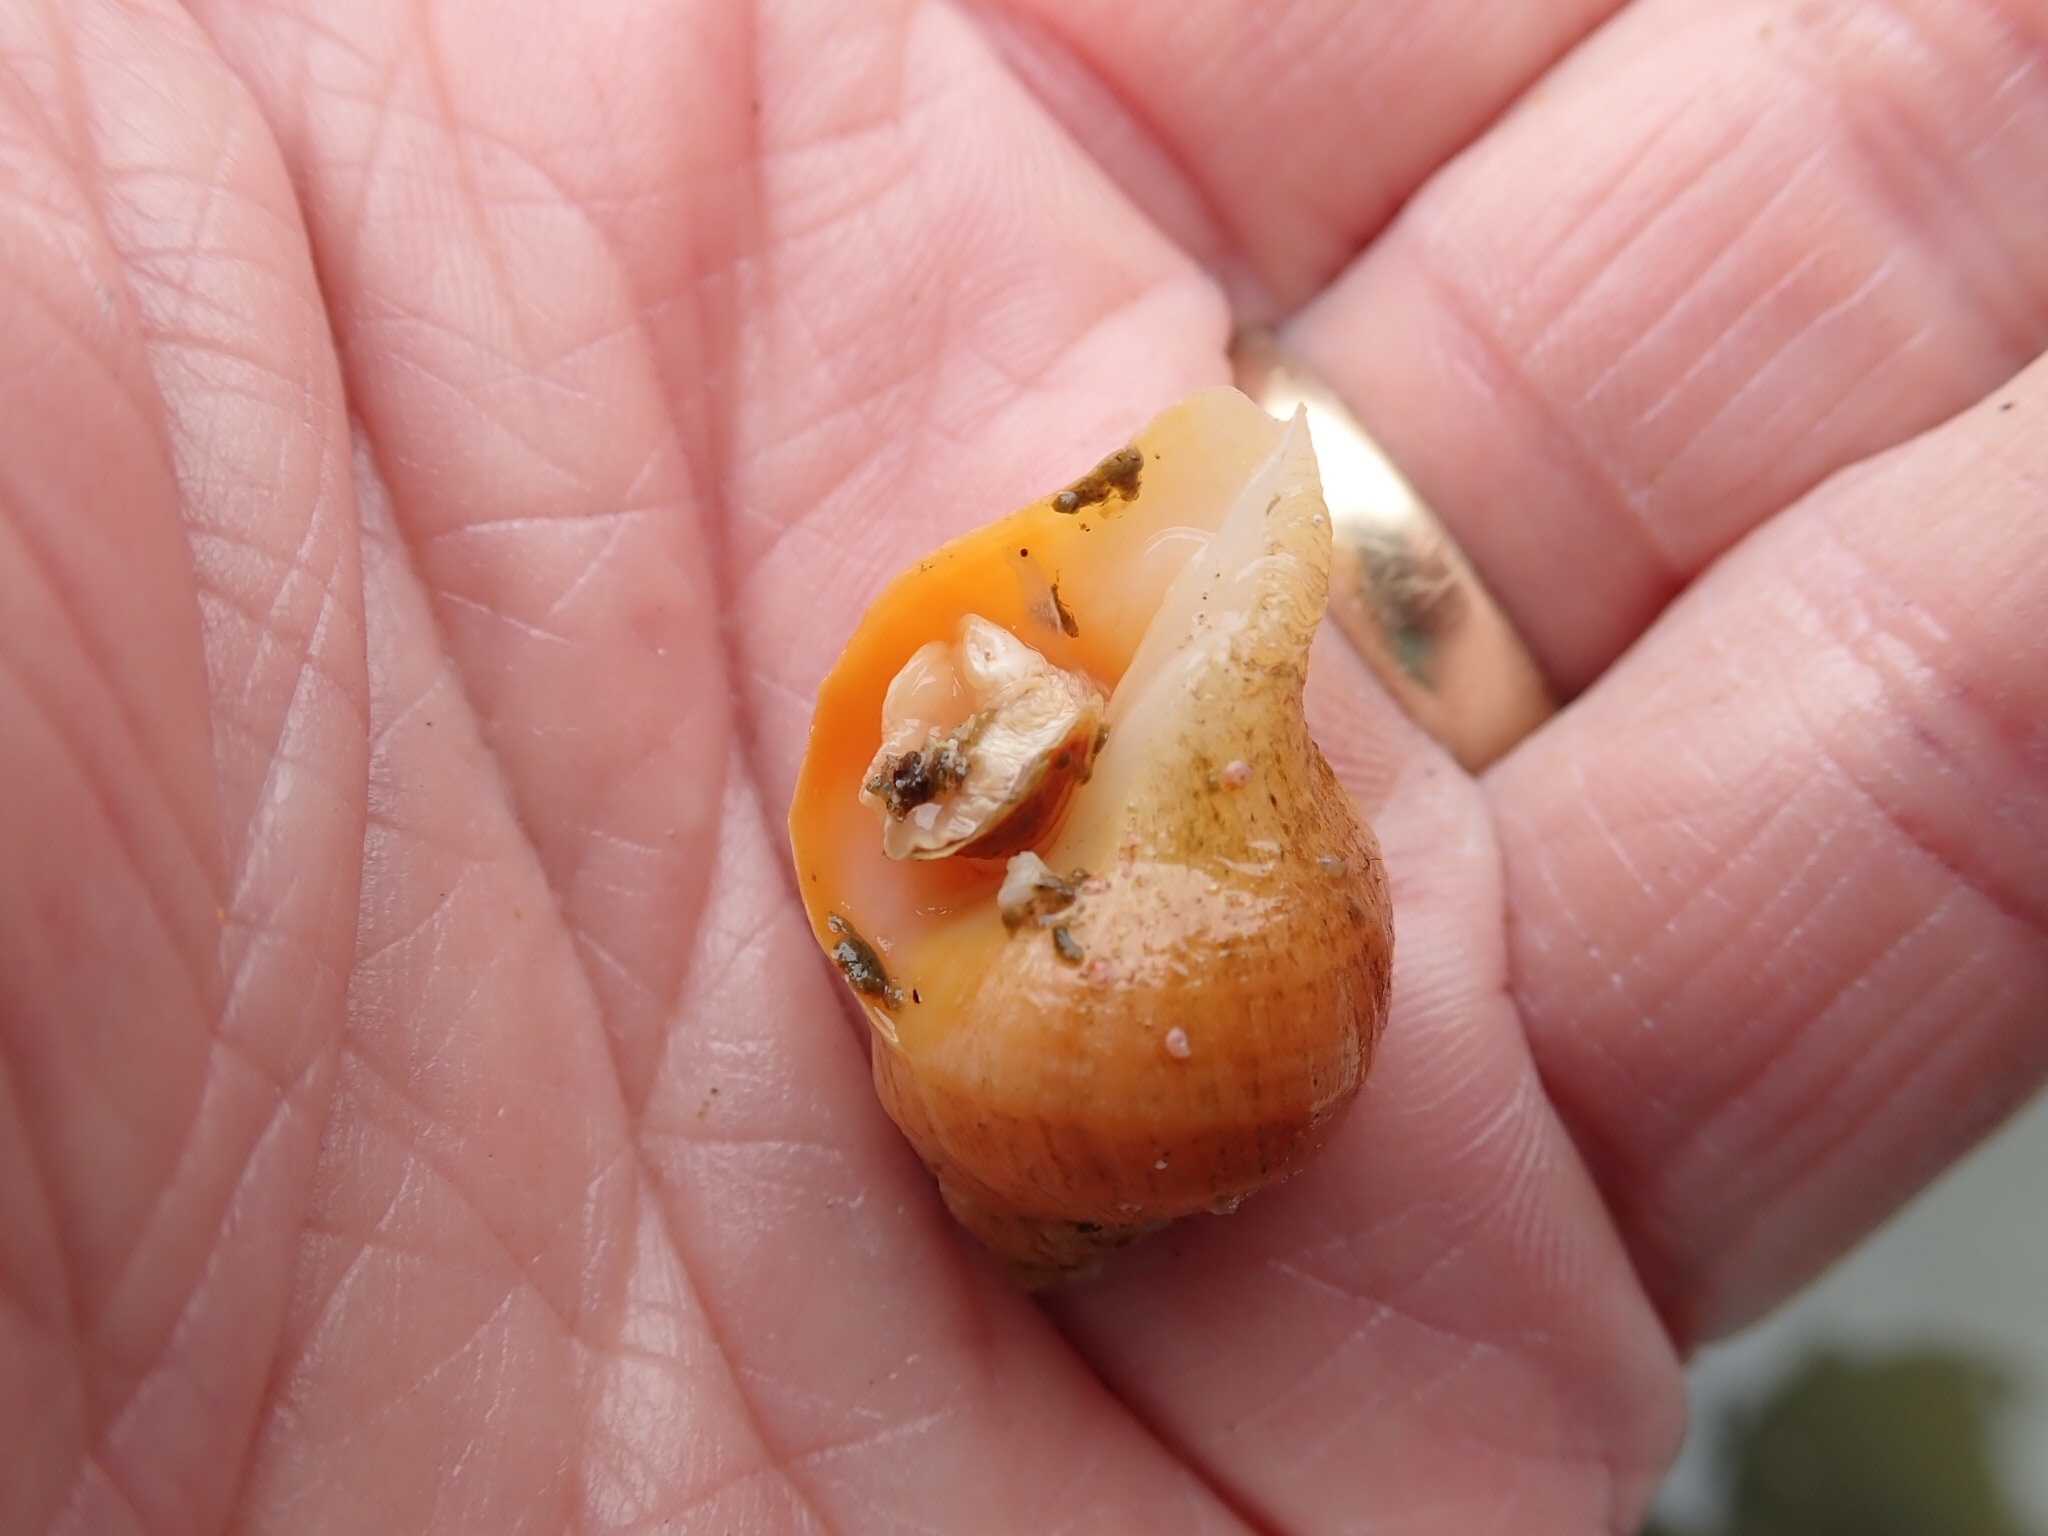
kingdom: Animalia
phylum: Mollusca
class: Gastropoda
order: Neogastropoda
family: Muricidae
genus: Nucella
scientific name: Nucella lamellosa
